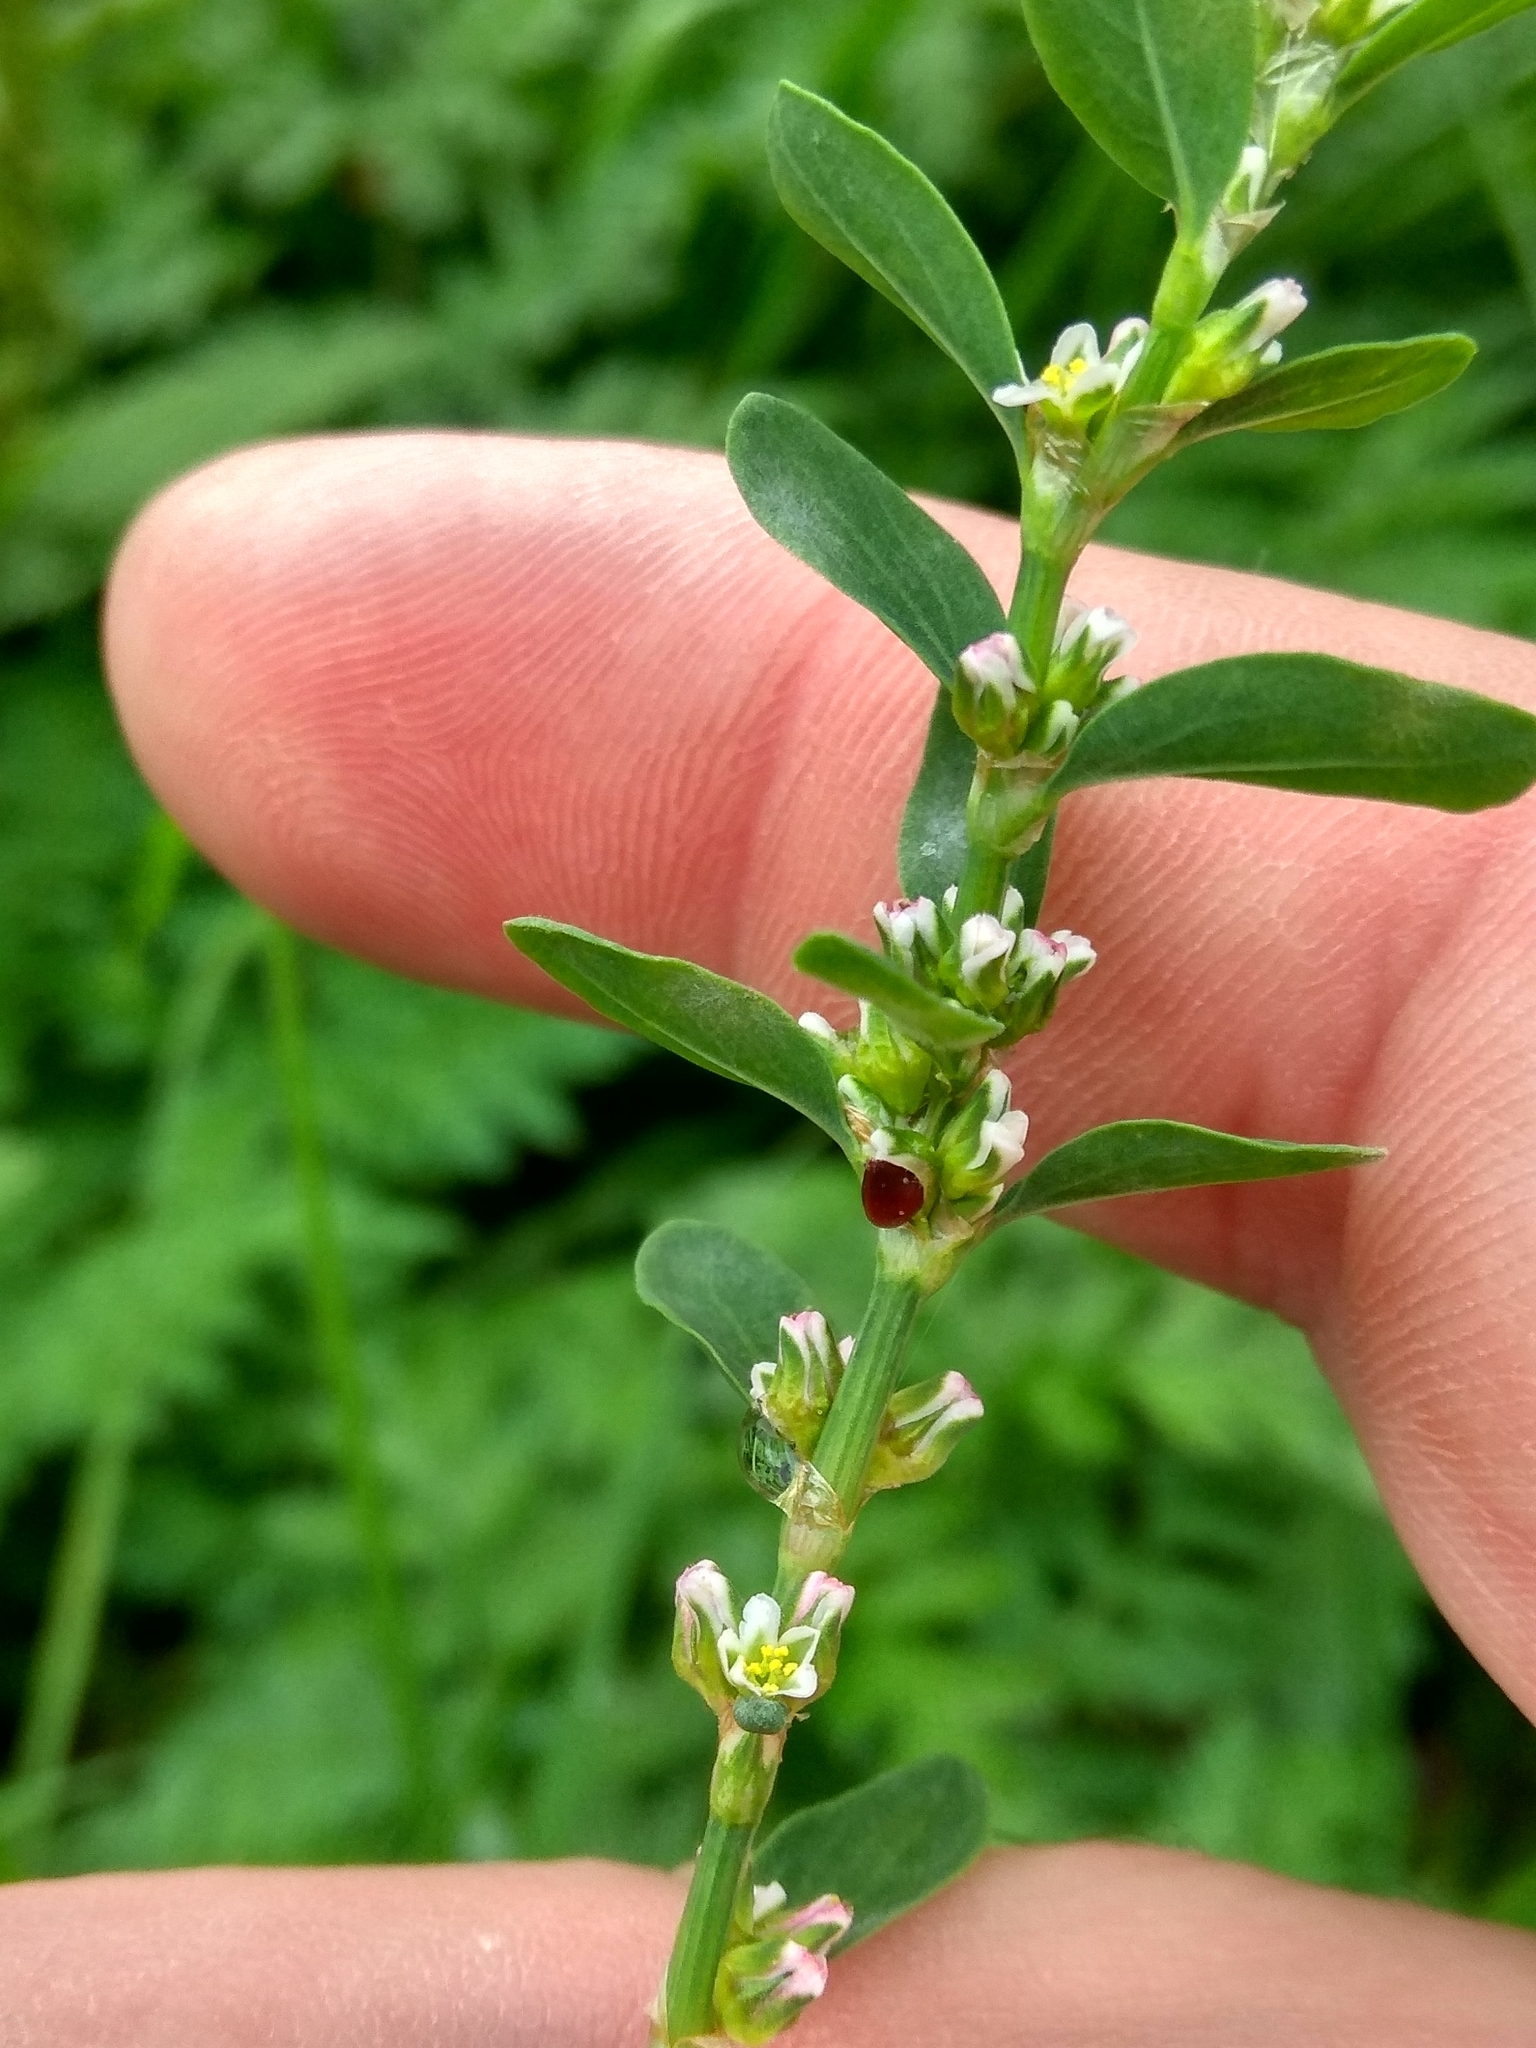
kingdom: Plantae
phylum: Tracheophyta
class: Magnoliopsida
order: Caryophyllales
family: Polygonaceae
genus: Polygonum
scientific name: Polygonum
